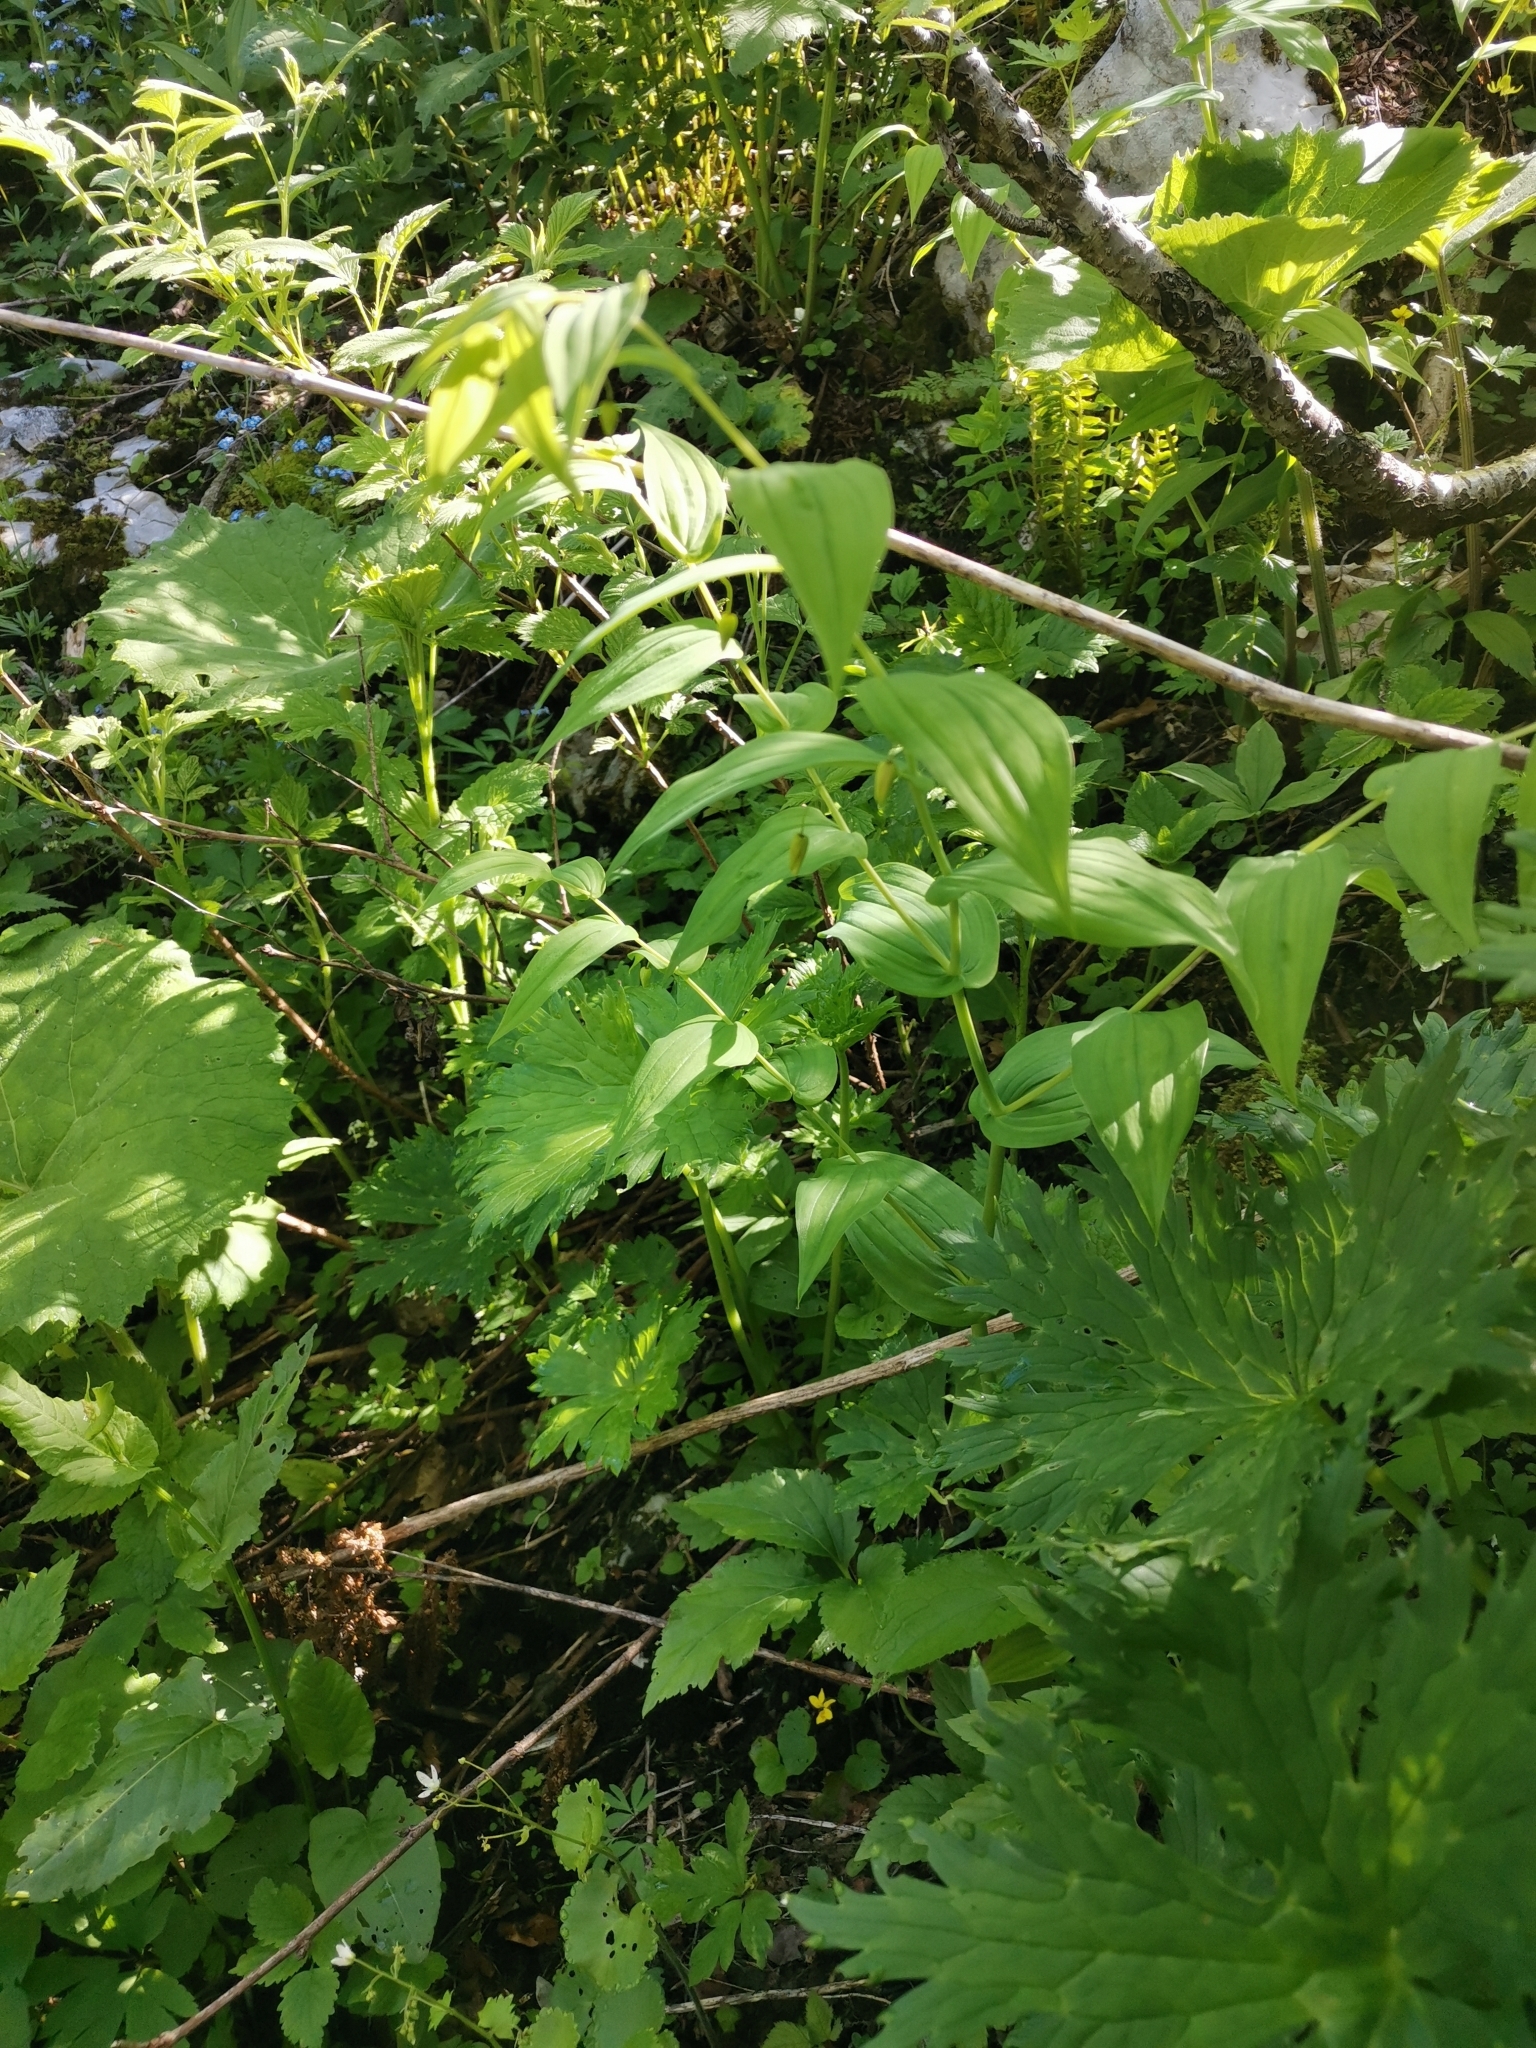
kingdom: Plantae
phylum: Tracheophyta
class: Liliopsida
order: Liliales
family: Liliaceae
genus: Streptopus
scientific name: Streptopus amplexifolius
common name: Clasp twisted stalk
